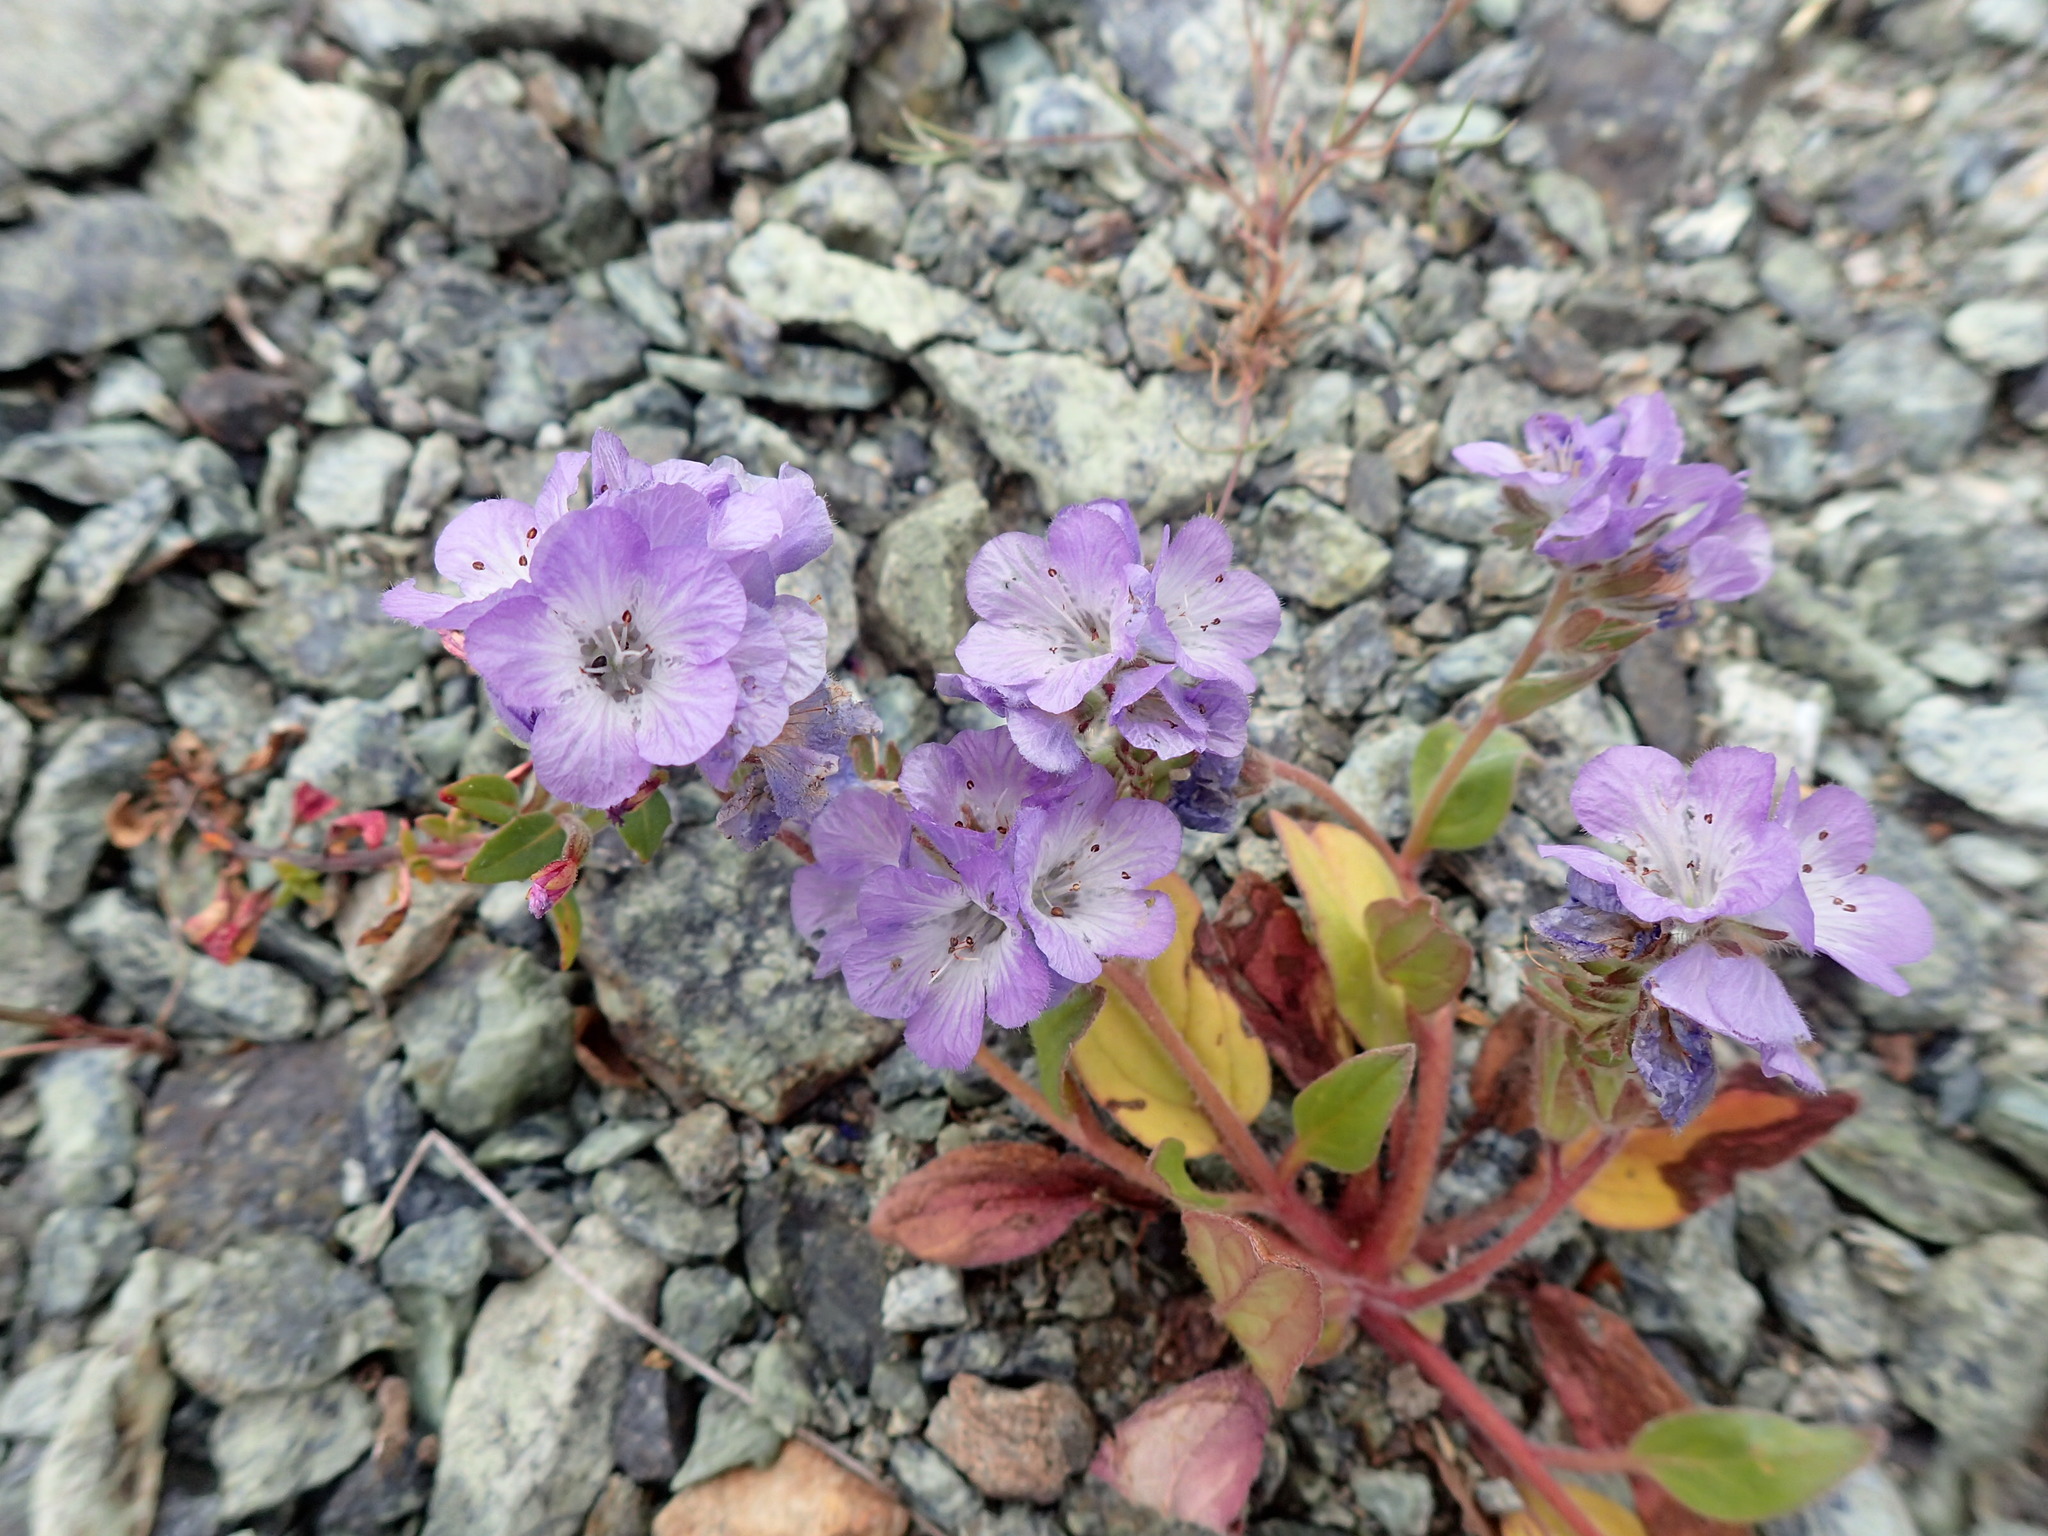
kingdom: Plantae
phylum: Tracheophyta
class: Magnoliopsida
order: Boraginales
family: Hydrophyllaceae
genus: Phacelia
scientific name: Phacelia divaricata
